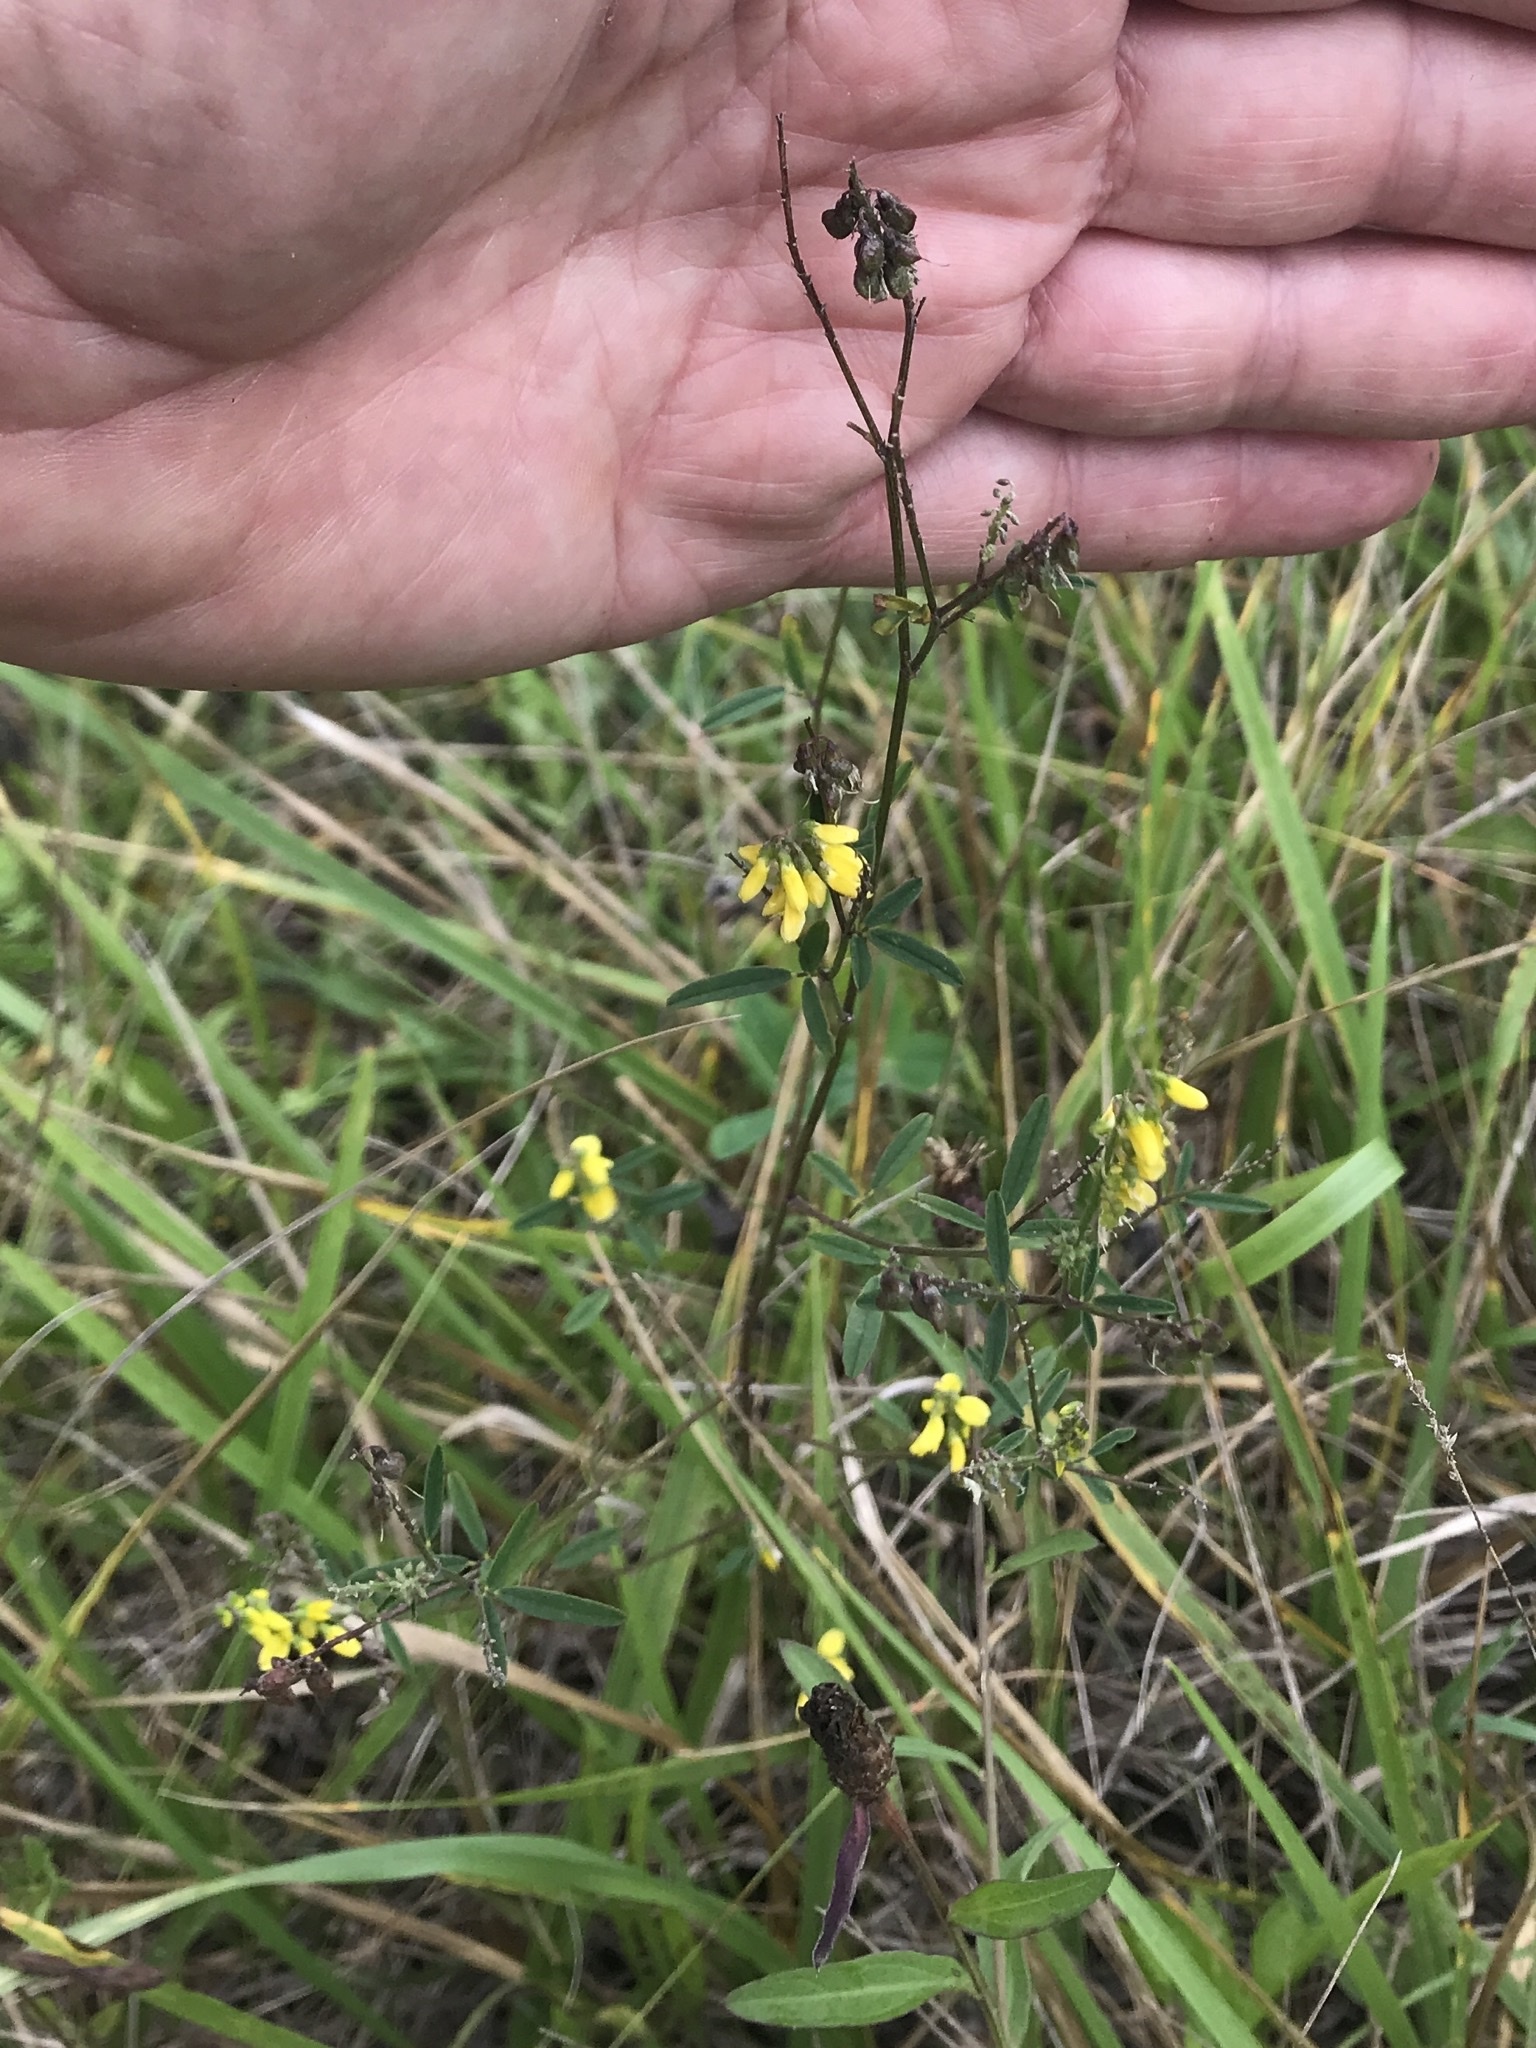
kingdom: Plantae
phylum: Tracheophyta
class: Magnoliopsida
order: Fabales
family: Fabaceae
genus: Melilotus
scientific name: Melilotus officinalis
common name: Sweetclover
